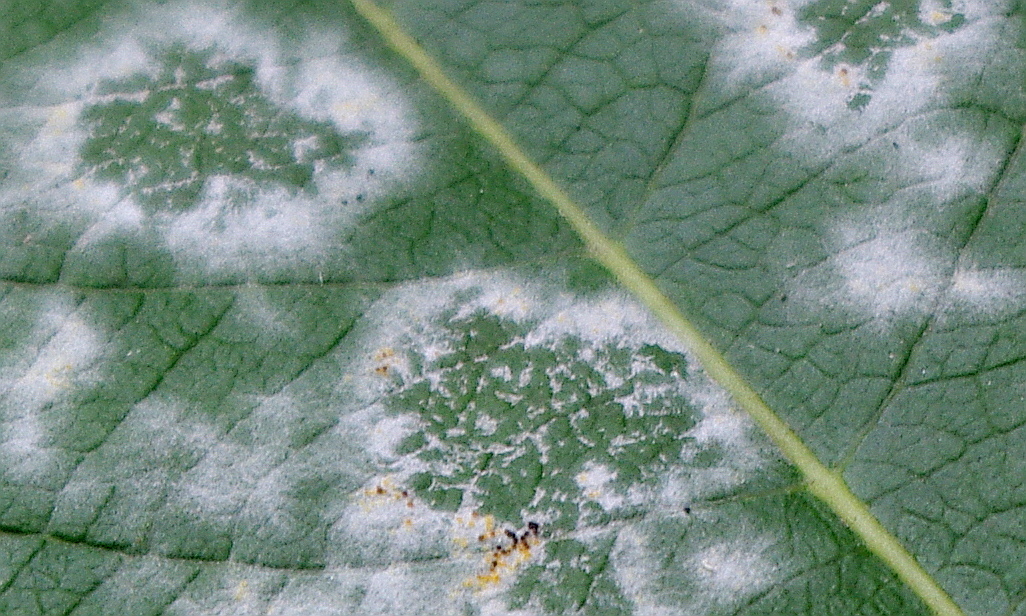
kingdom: Fungi
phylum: Ascomycota
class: Leotiomycetes
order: Helotiales
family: Erysiphaceae
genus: Erysiphe
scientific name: Erysiphe capreae
